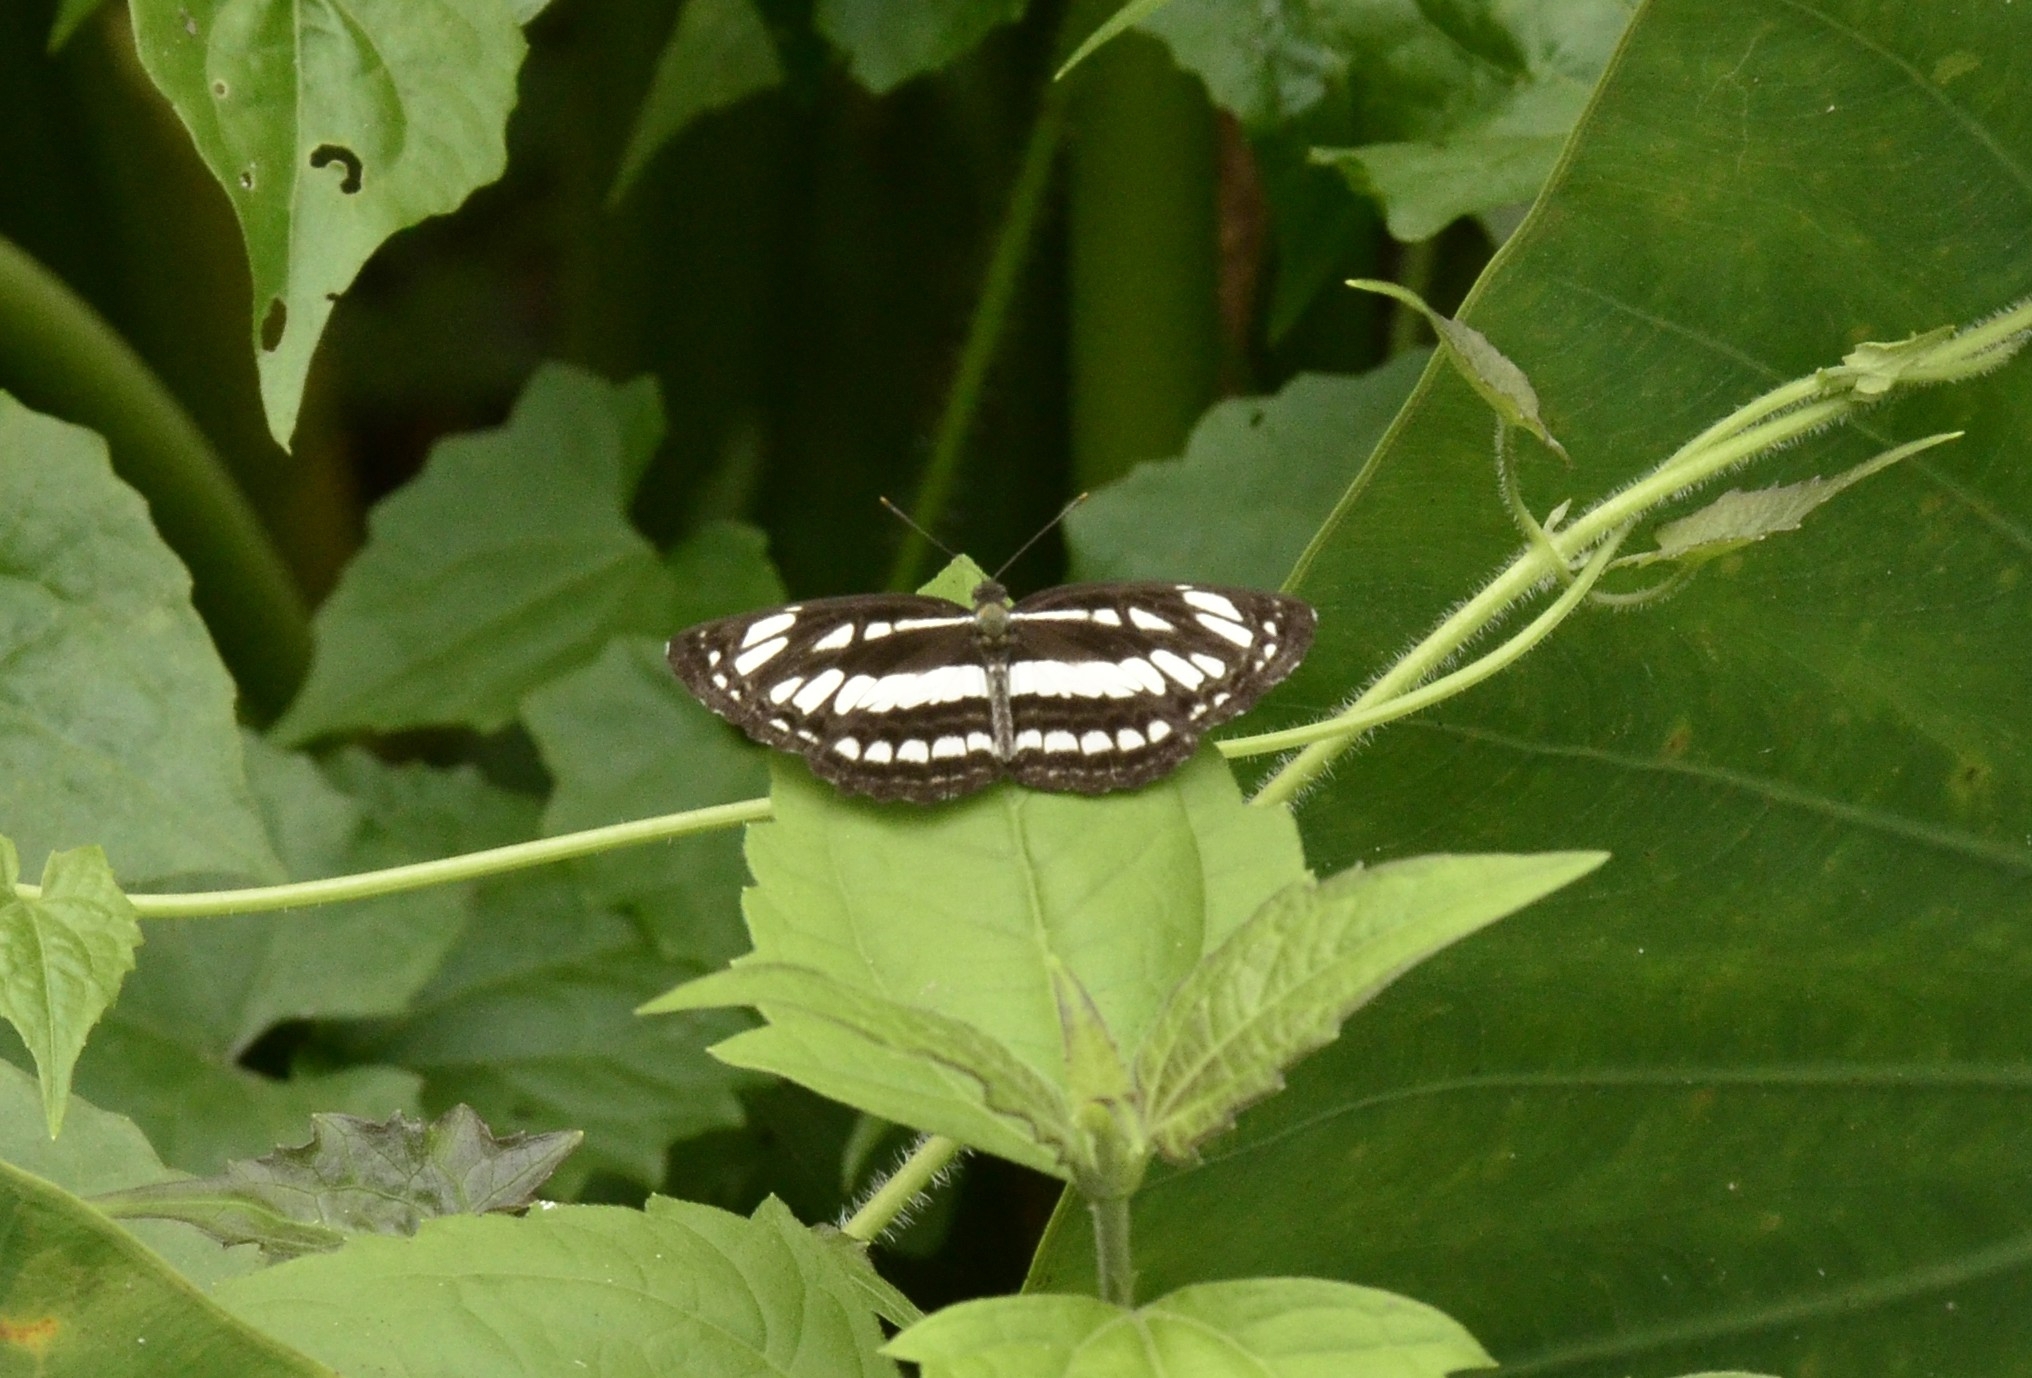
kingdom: Animalia
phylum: Arthropoda
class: Insecta
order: Lepidoptera
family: Nymphalidae
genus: Neptis
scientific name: Neptis hylas
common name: Common sailer
